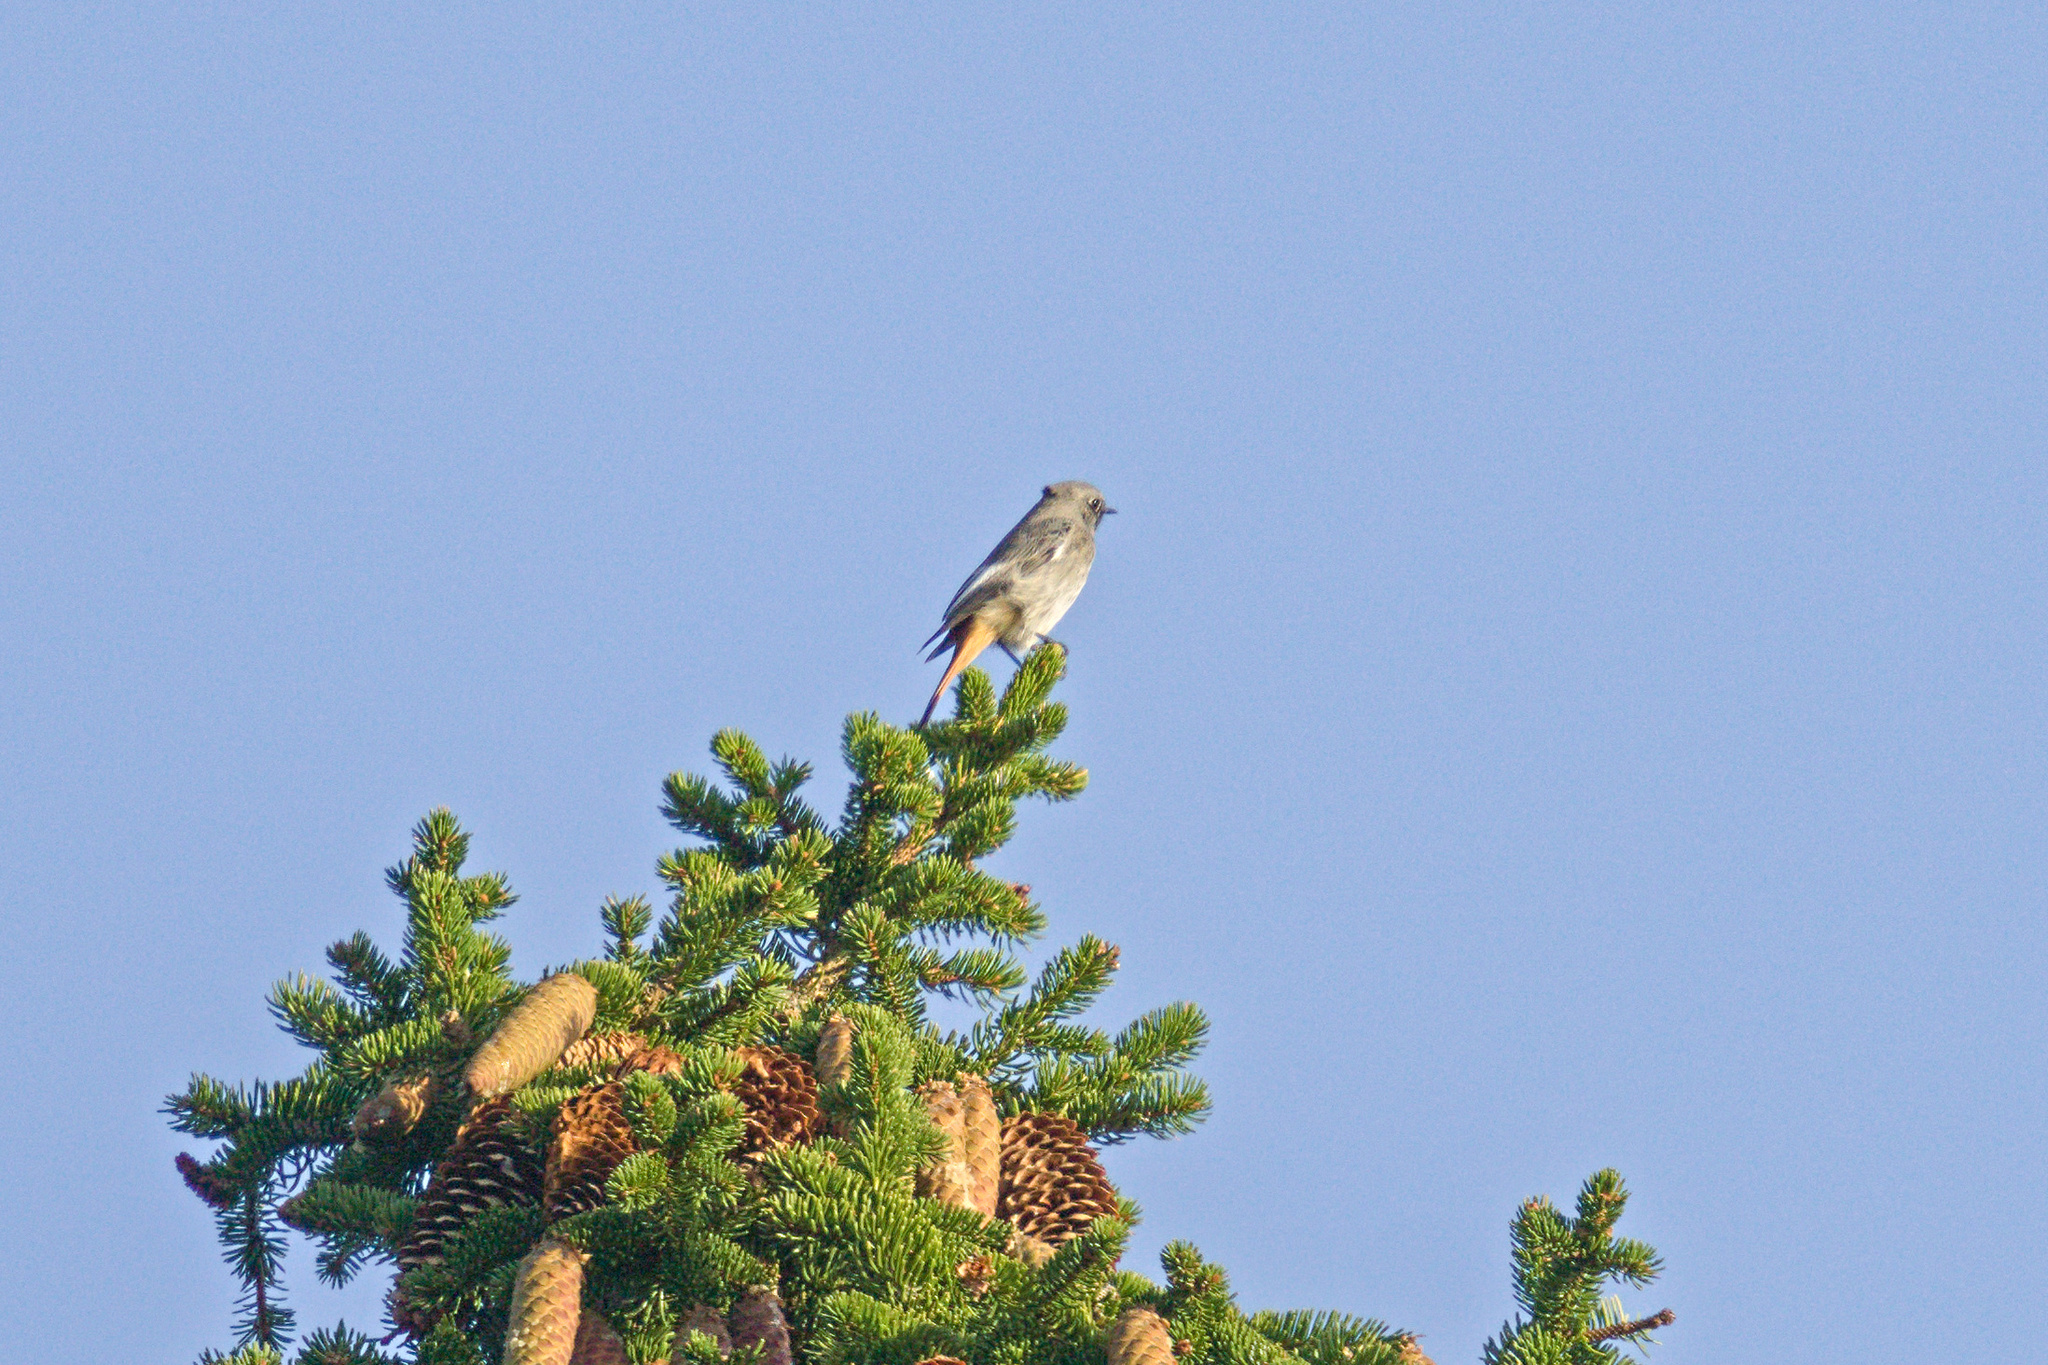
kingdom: Animalia
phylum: Chordata
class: Aves
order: Passeriformes
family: Muscicapidae
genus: Phoenicurus
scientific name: Phoenicurus ochruros
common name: Black redstart
